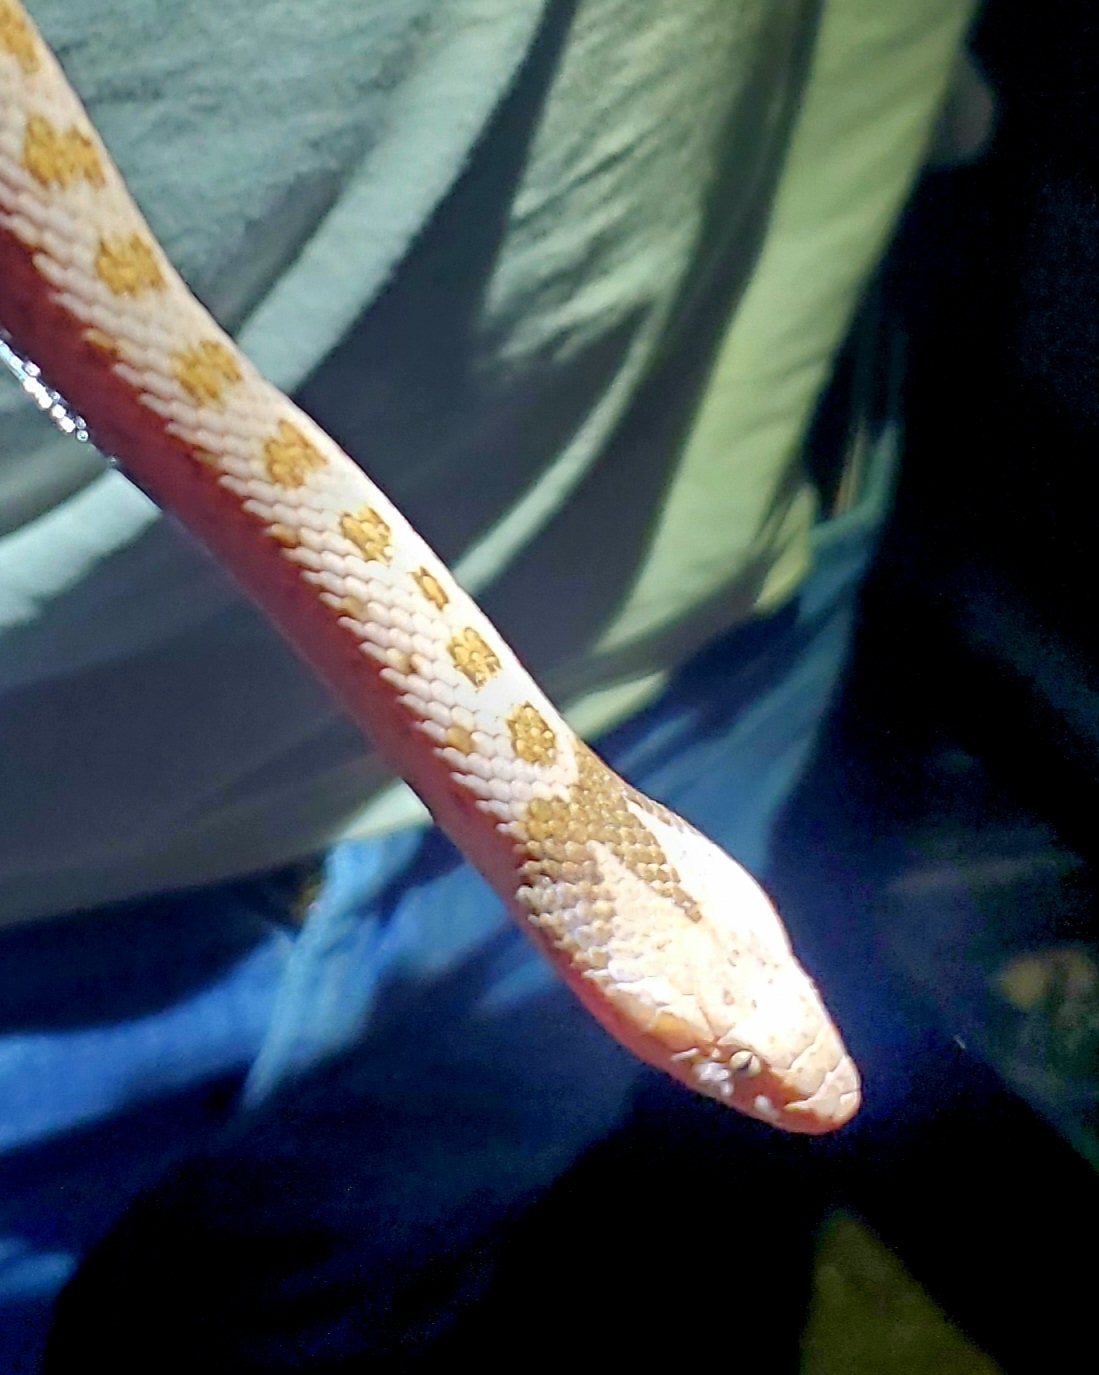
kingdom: Animalia
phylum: Chordata
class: Squamata
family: Colubridae
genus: Hypsiglena
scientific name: Hypsiglena chlorophaea
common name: Desert nightsnake
